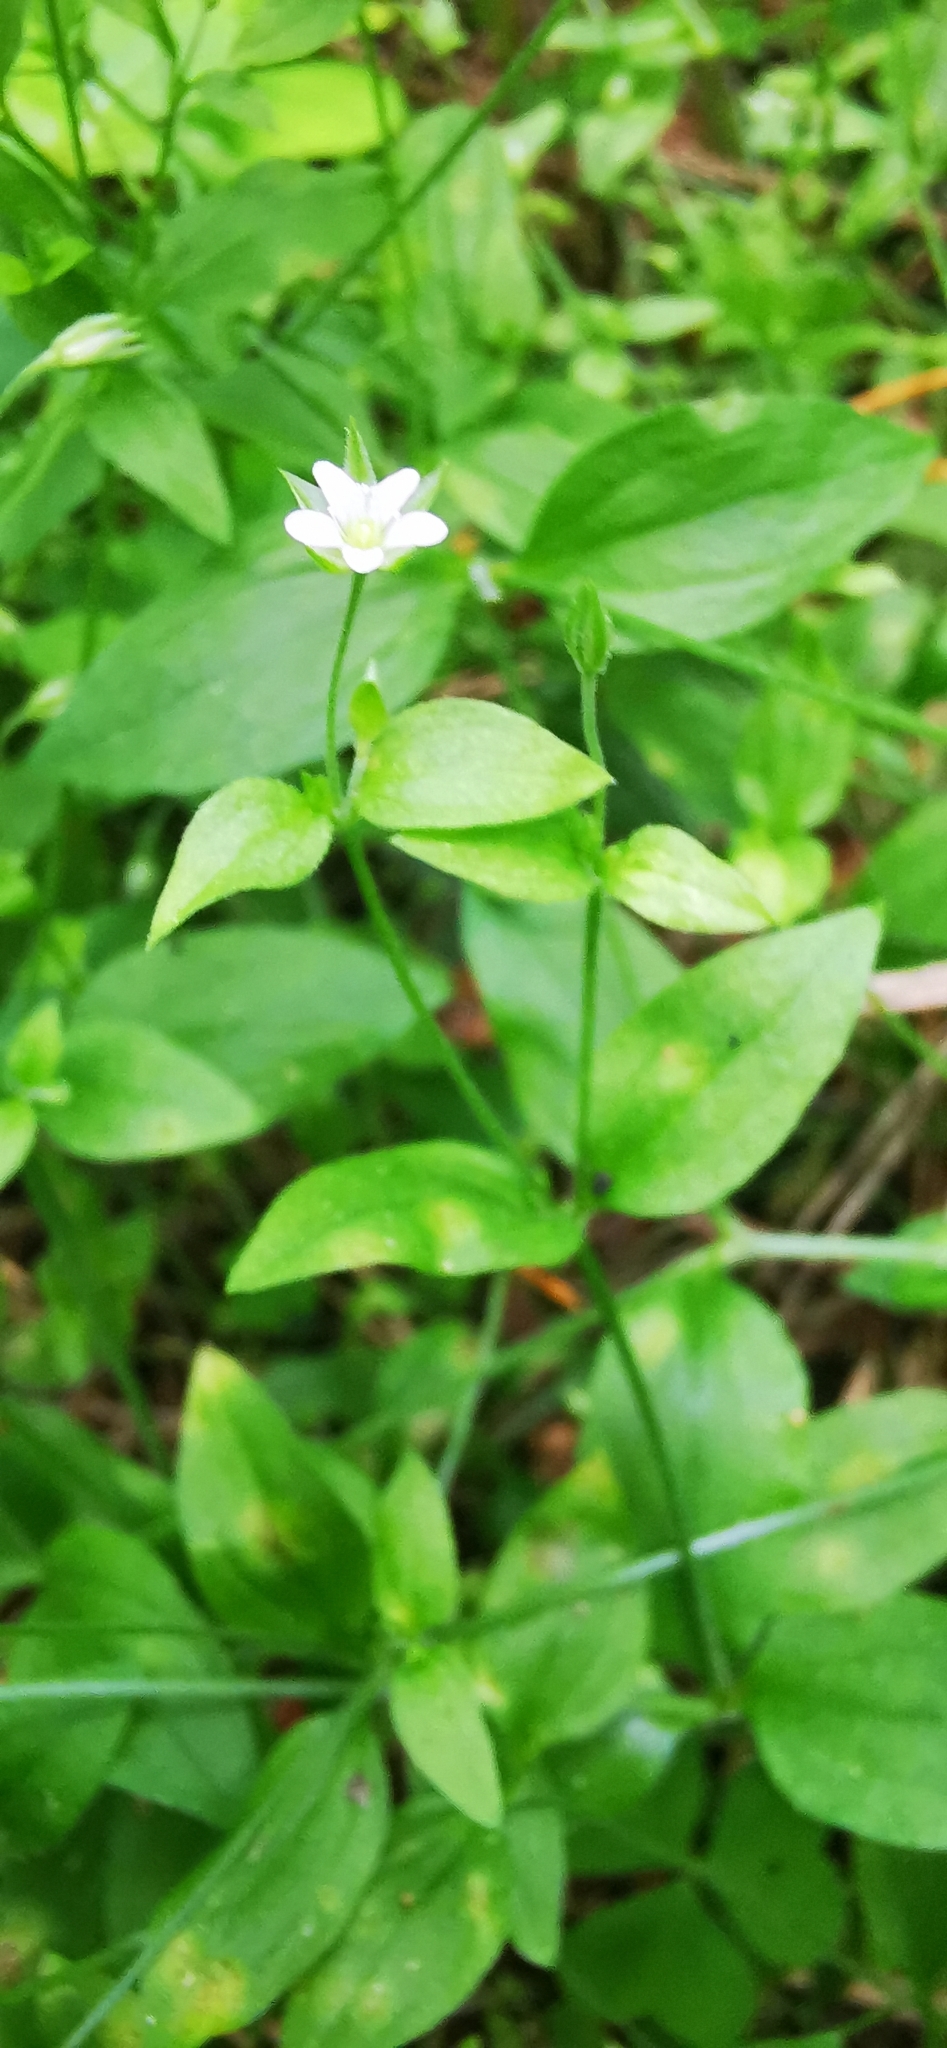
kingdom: Plantae
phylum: Tracheophyta
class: Magnoliopsida
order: Caryophyllales
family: Caryophyllaceae
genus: Moehringia
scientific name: Moehringia trinervia
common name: Three-nerved sandwort
